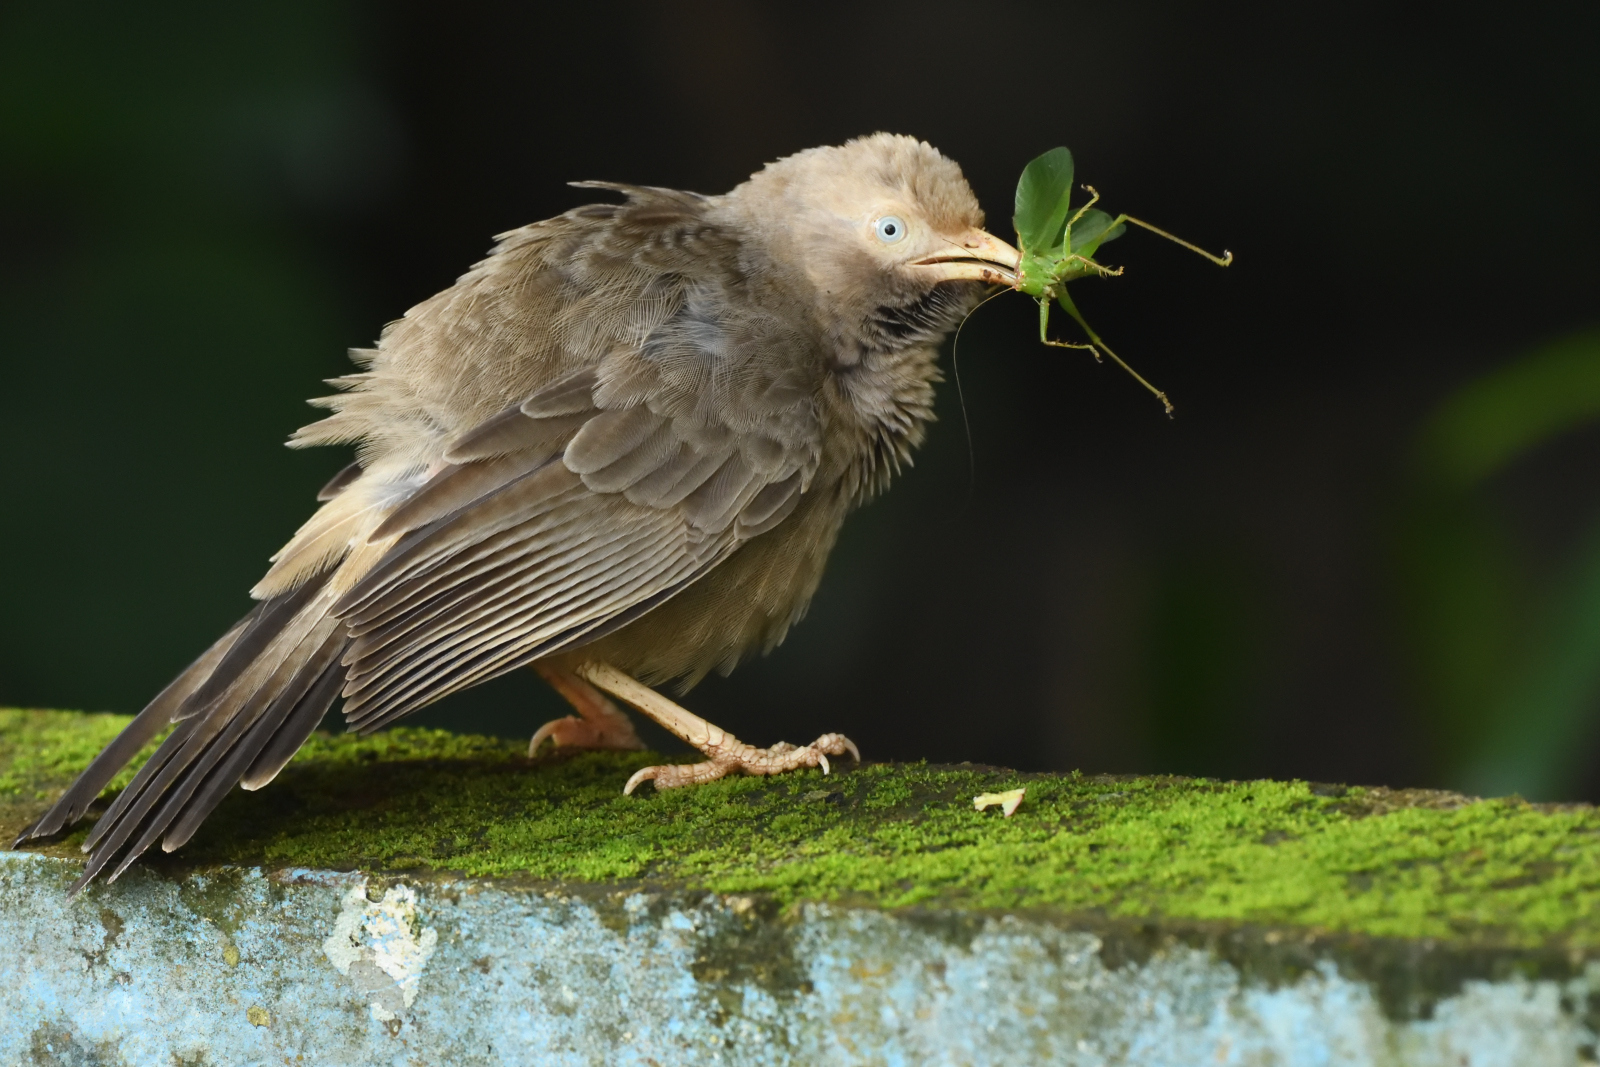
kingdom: Animalia
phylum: Chordata
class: Aves
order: Passeriformes
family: Leiothrichidae
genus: Turdoides
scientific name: Turdoides affinis
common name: Yellow-billed babbler
